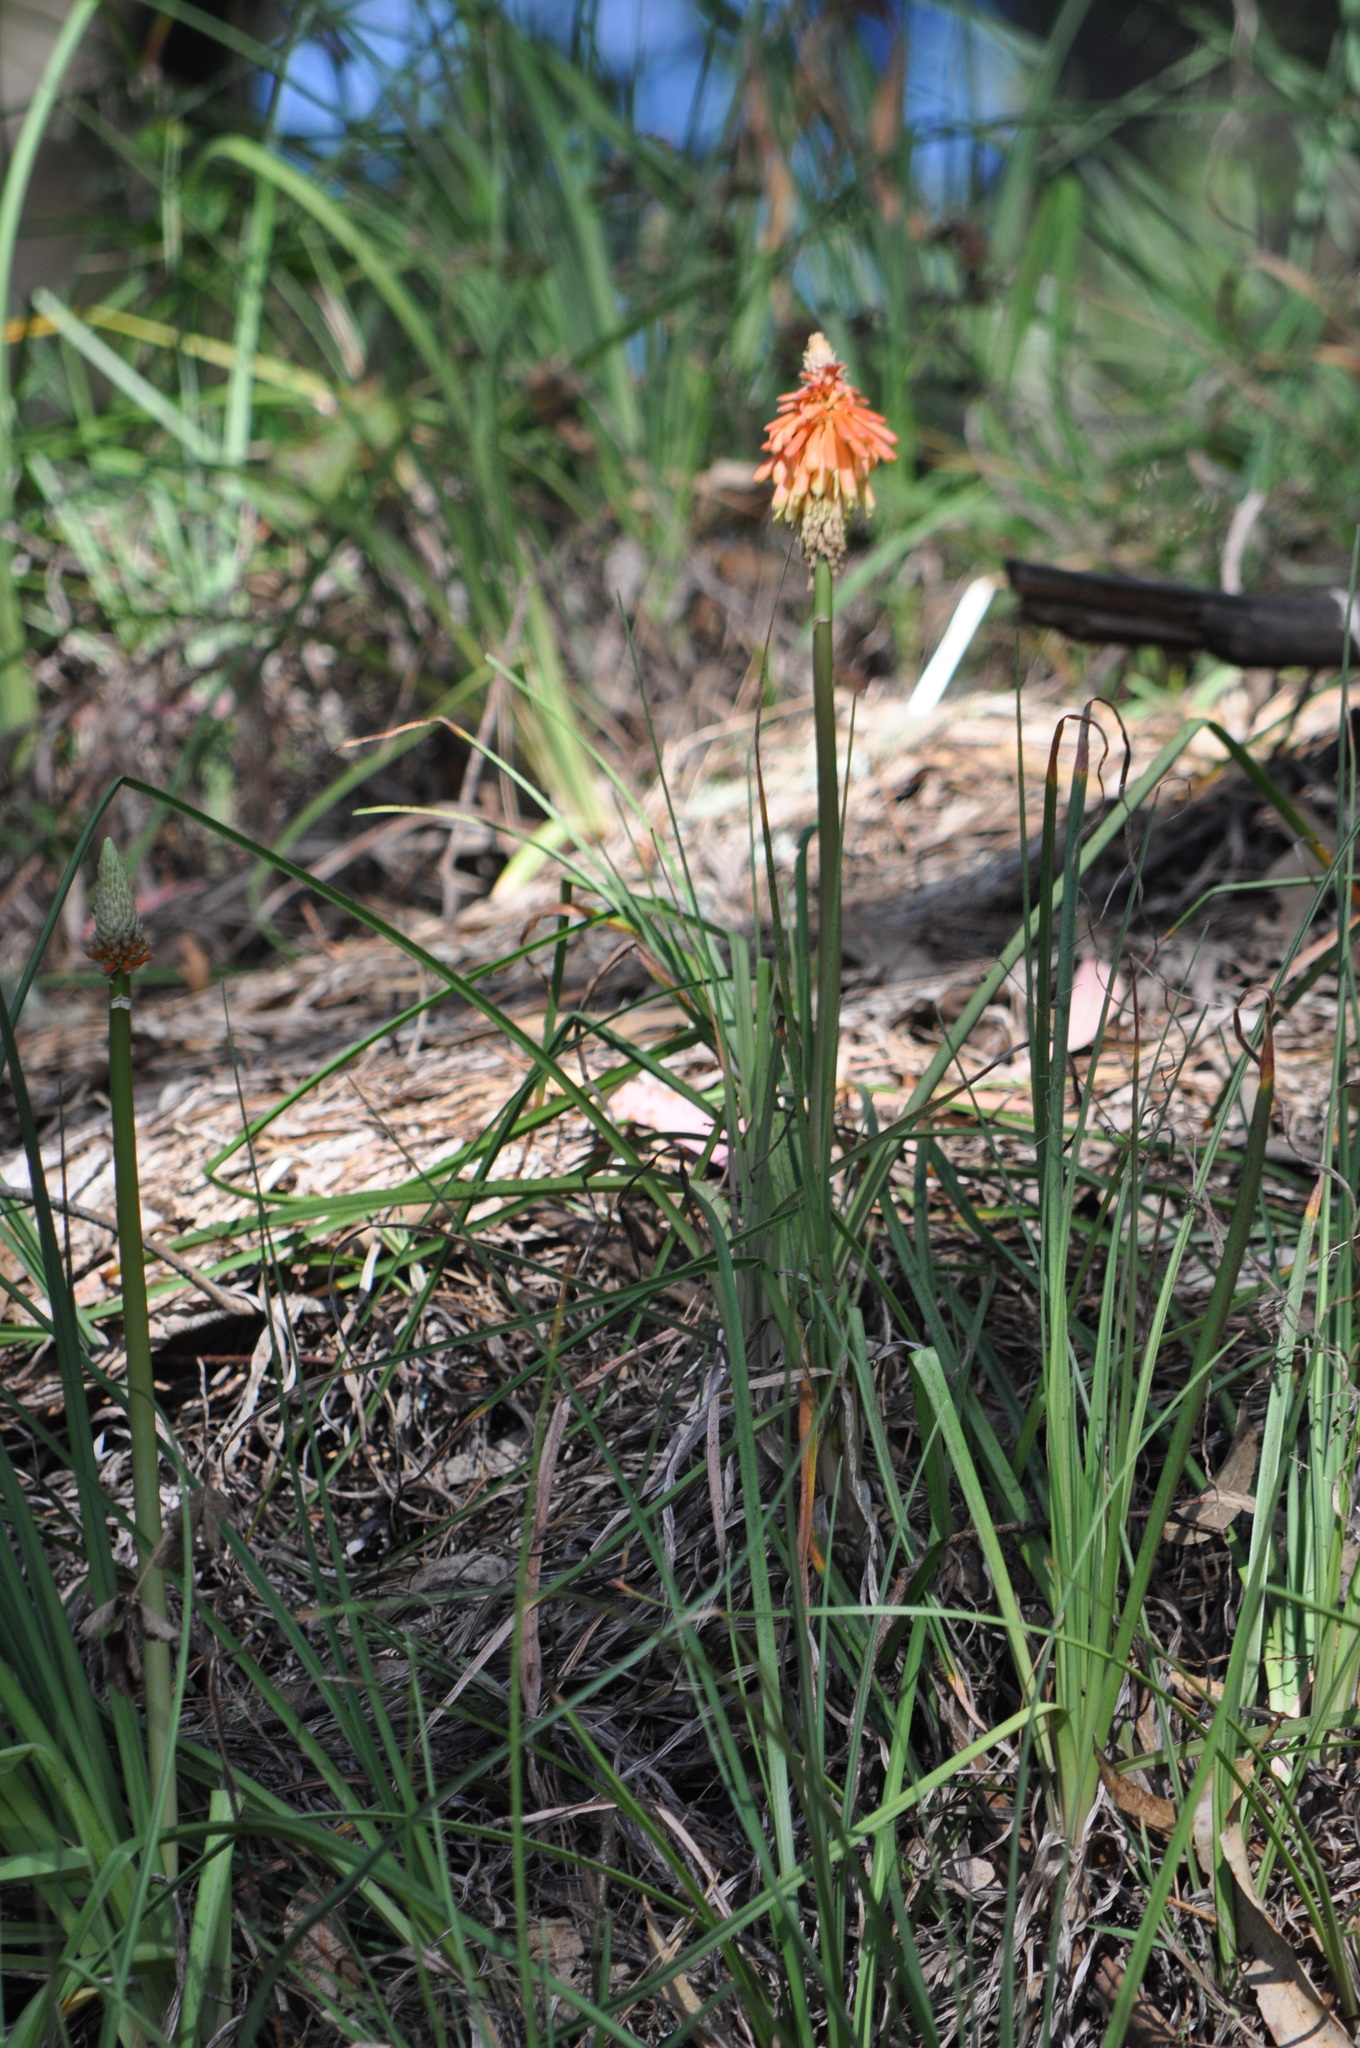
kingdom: Plantae
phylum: Tracheophyta
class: Liliopsida
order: Asparagales
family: Asphodelaceae
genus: Kniphofia
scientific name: Kniphofia uvaria
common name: Red-hot-poker
